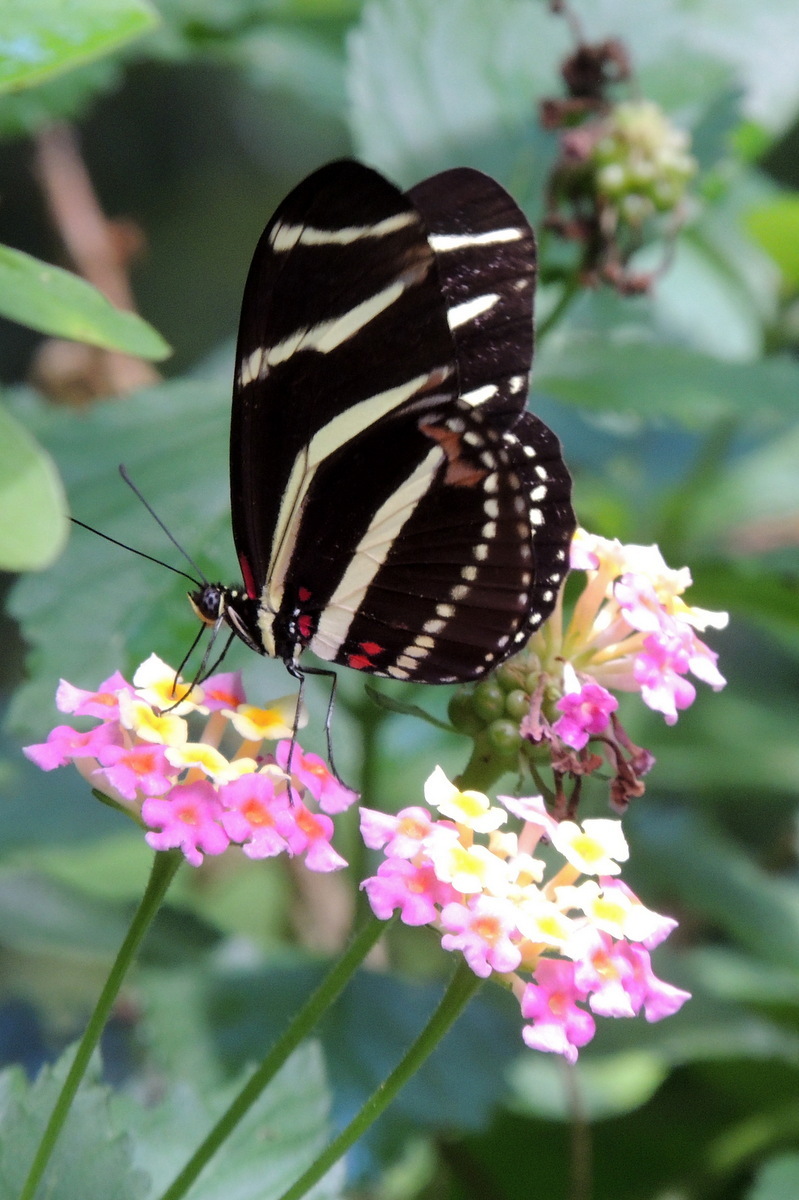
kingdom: Animalia
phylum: Arthropoda
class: Insecta
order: Lepidoptera
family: Nymphalidae
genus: Heliconius
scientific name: Heliconius charithonia
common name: Zebra long wing
